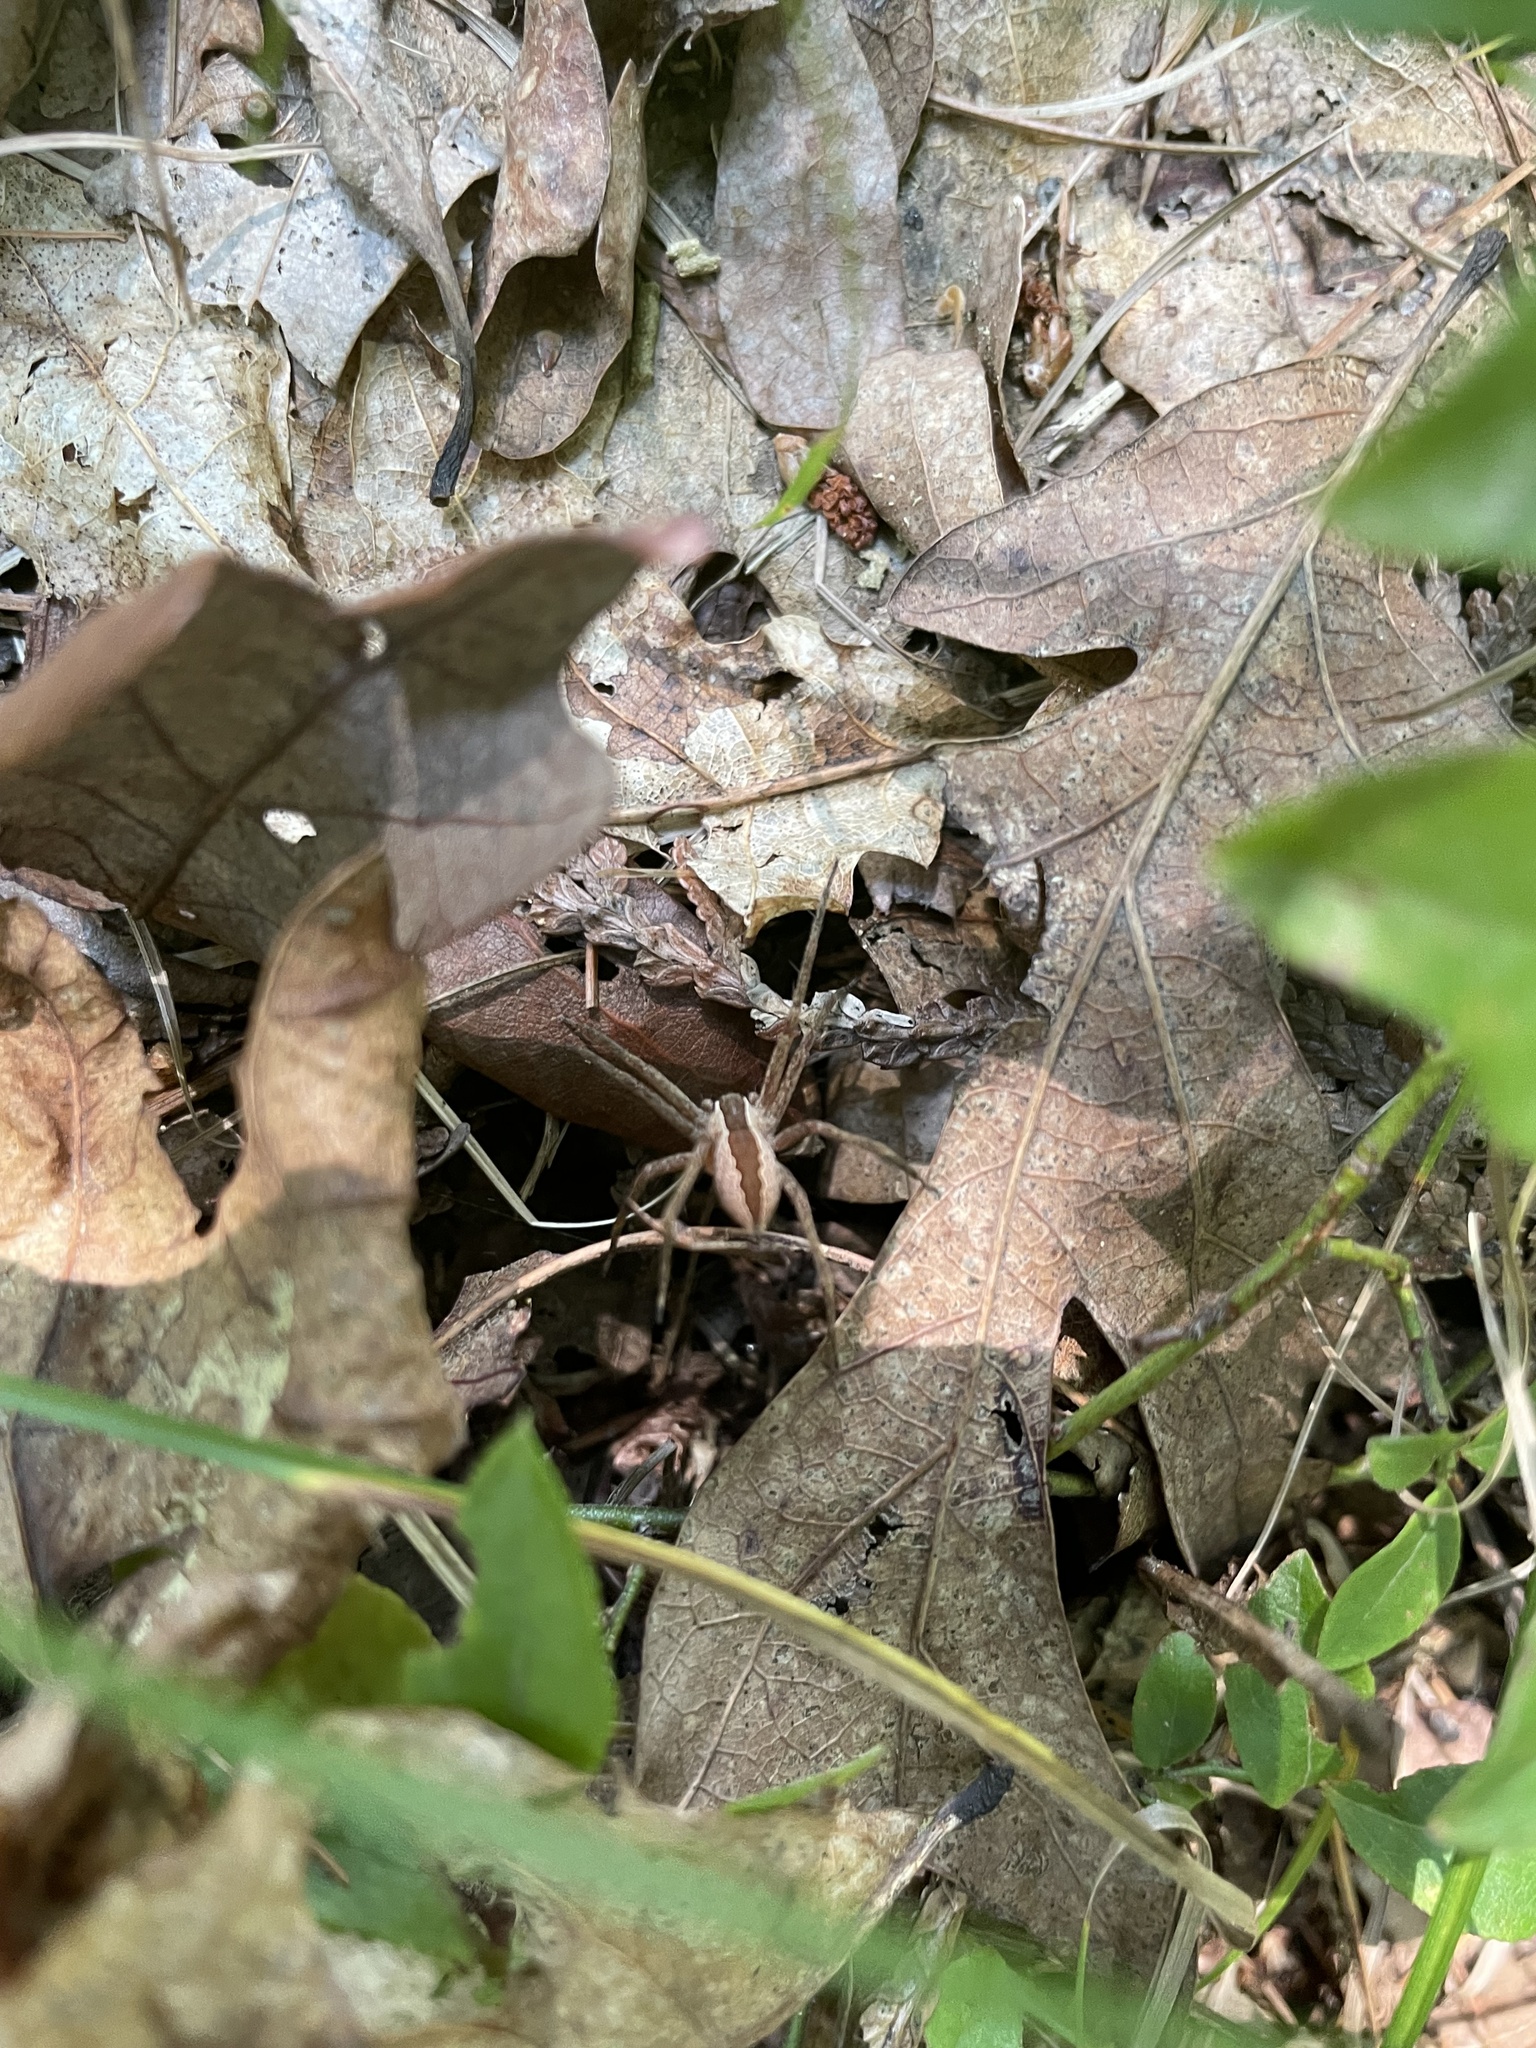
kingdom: Animalia
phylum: Arthropoda
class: Arachnida
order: Araneae
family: Pisauridae
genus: Pisaurina
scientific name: Pisaurina mira
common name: American nursery web spider
